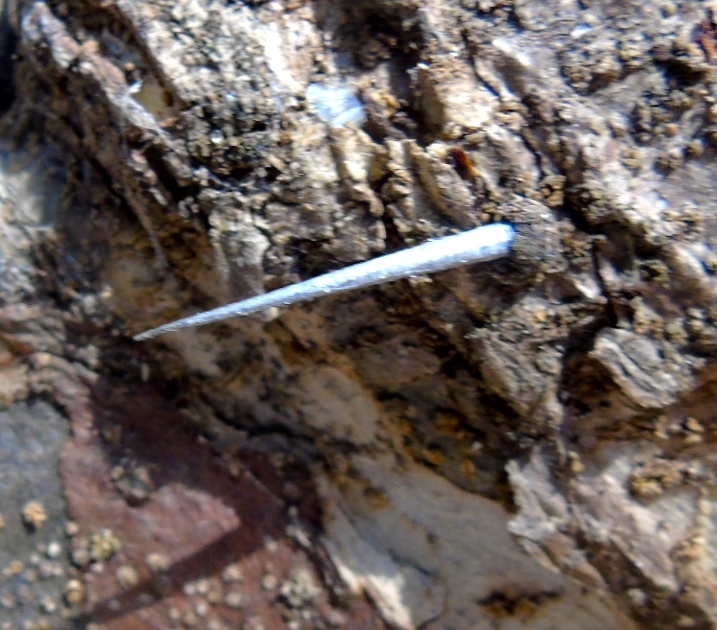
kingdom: Animalia
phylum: Arthropoda
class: Insecta
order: Lepidoptera
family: Coleophoridae
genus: Homaledra
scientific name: Homaledra octagonella
